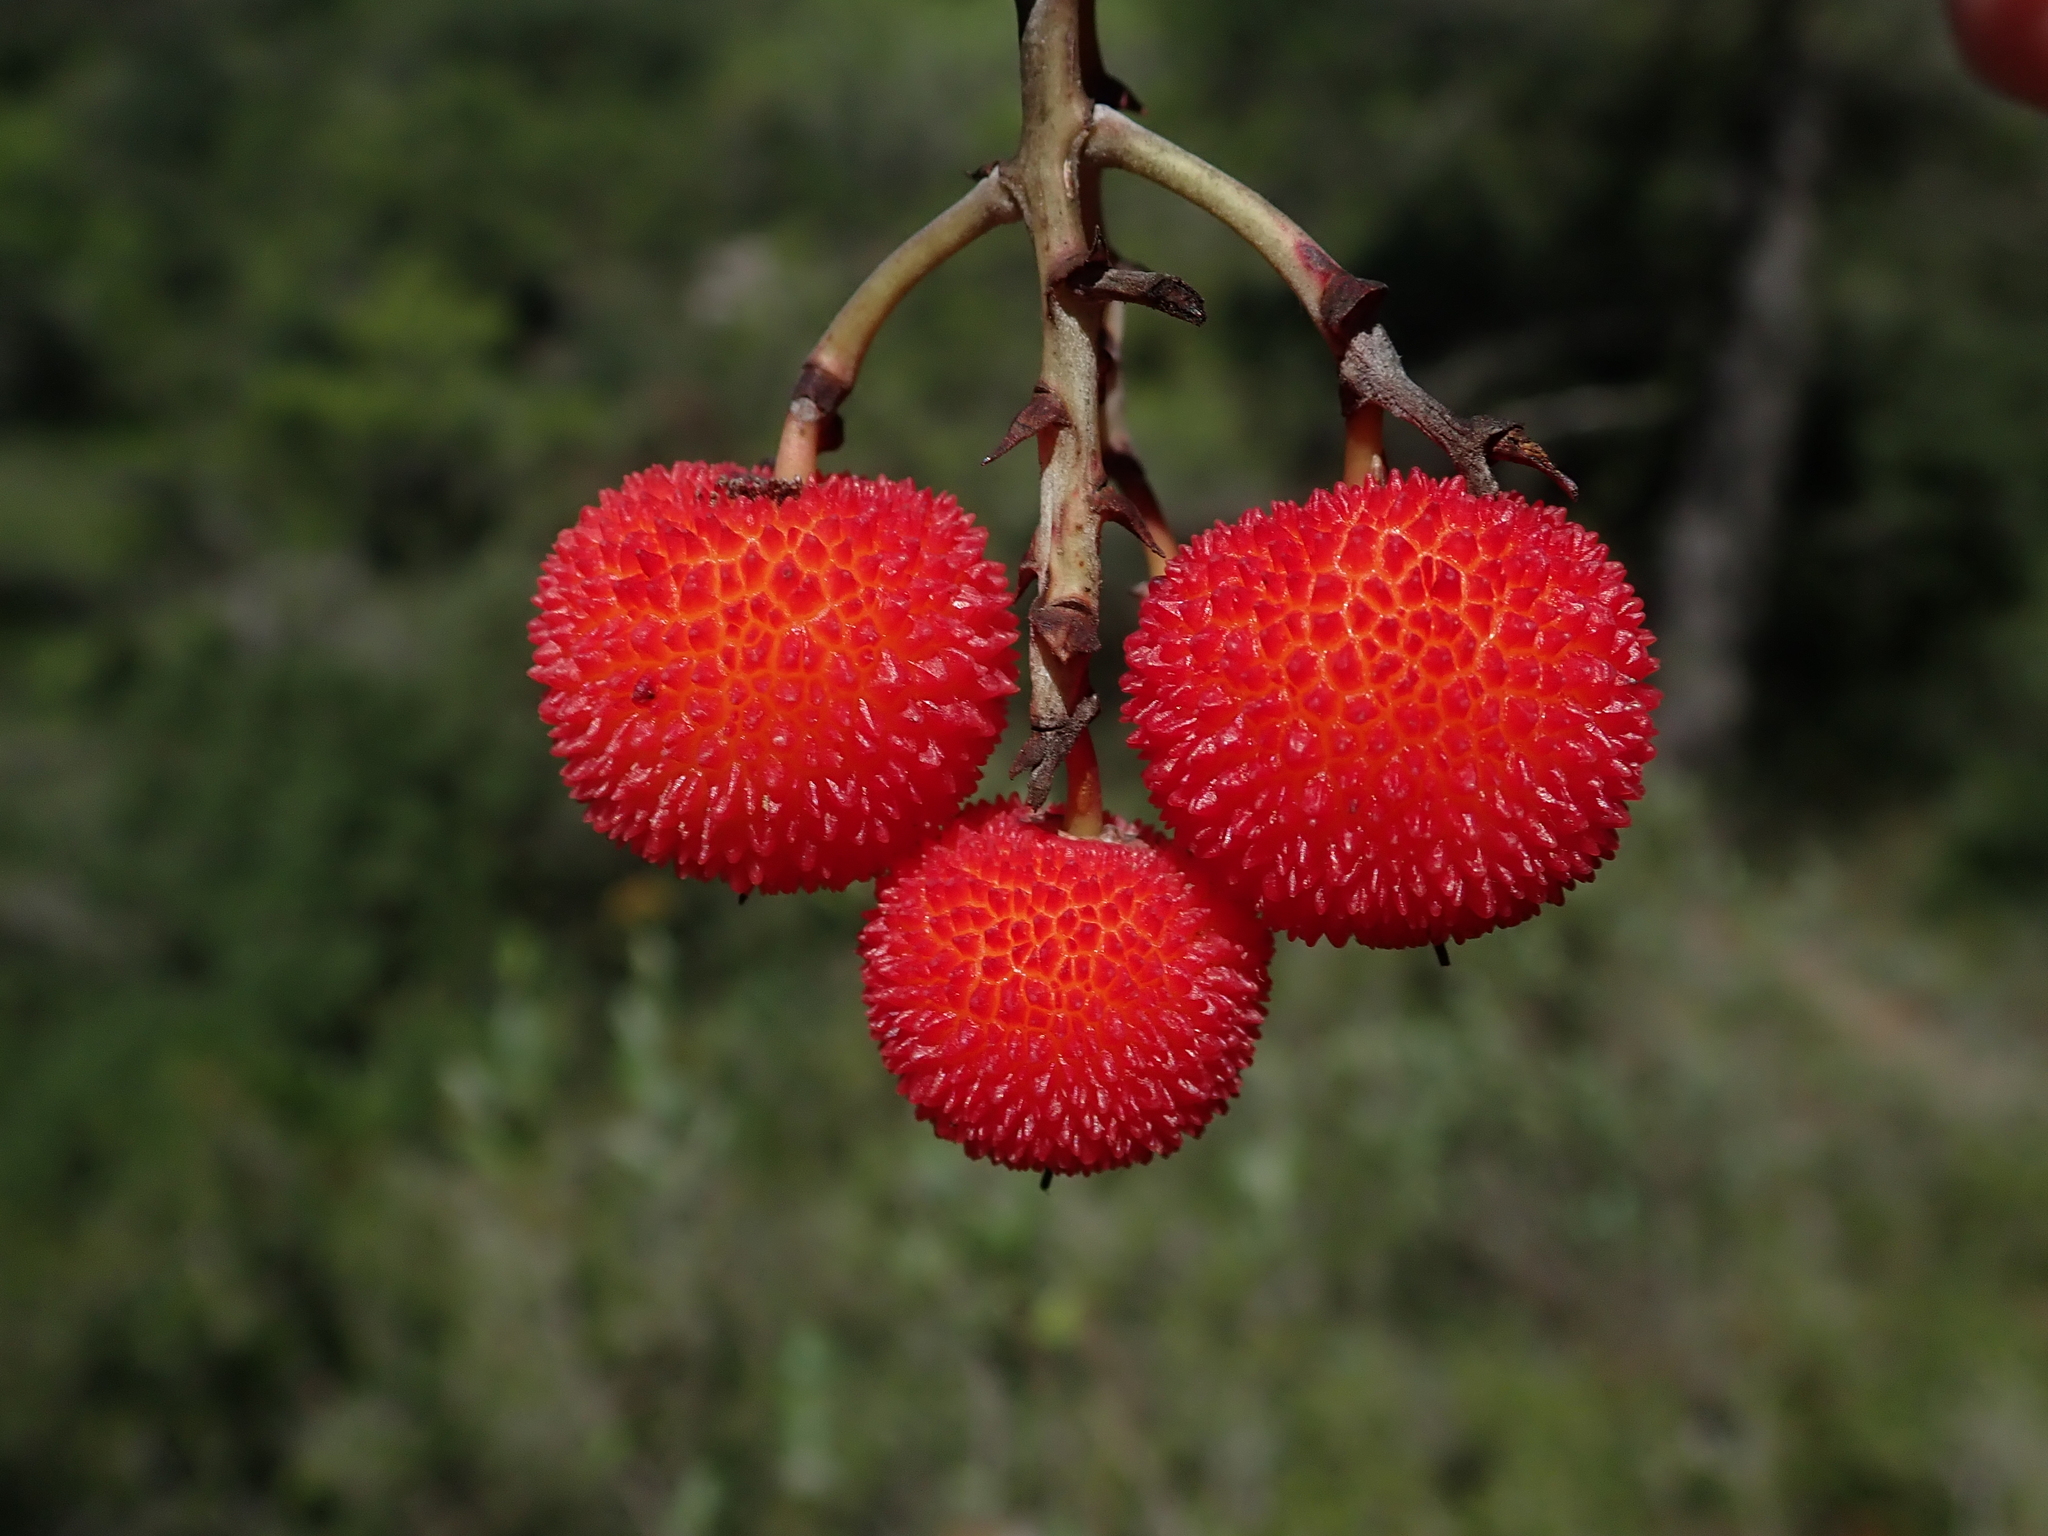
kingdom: Plantae
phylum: Tracheophyta
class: Magnoliopsida
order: Ericales
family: Ericaceae
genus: Arbutus
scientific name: Arbutus unedo
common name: Strawberry-tree
